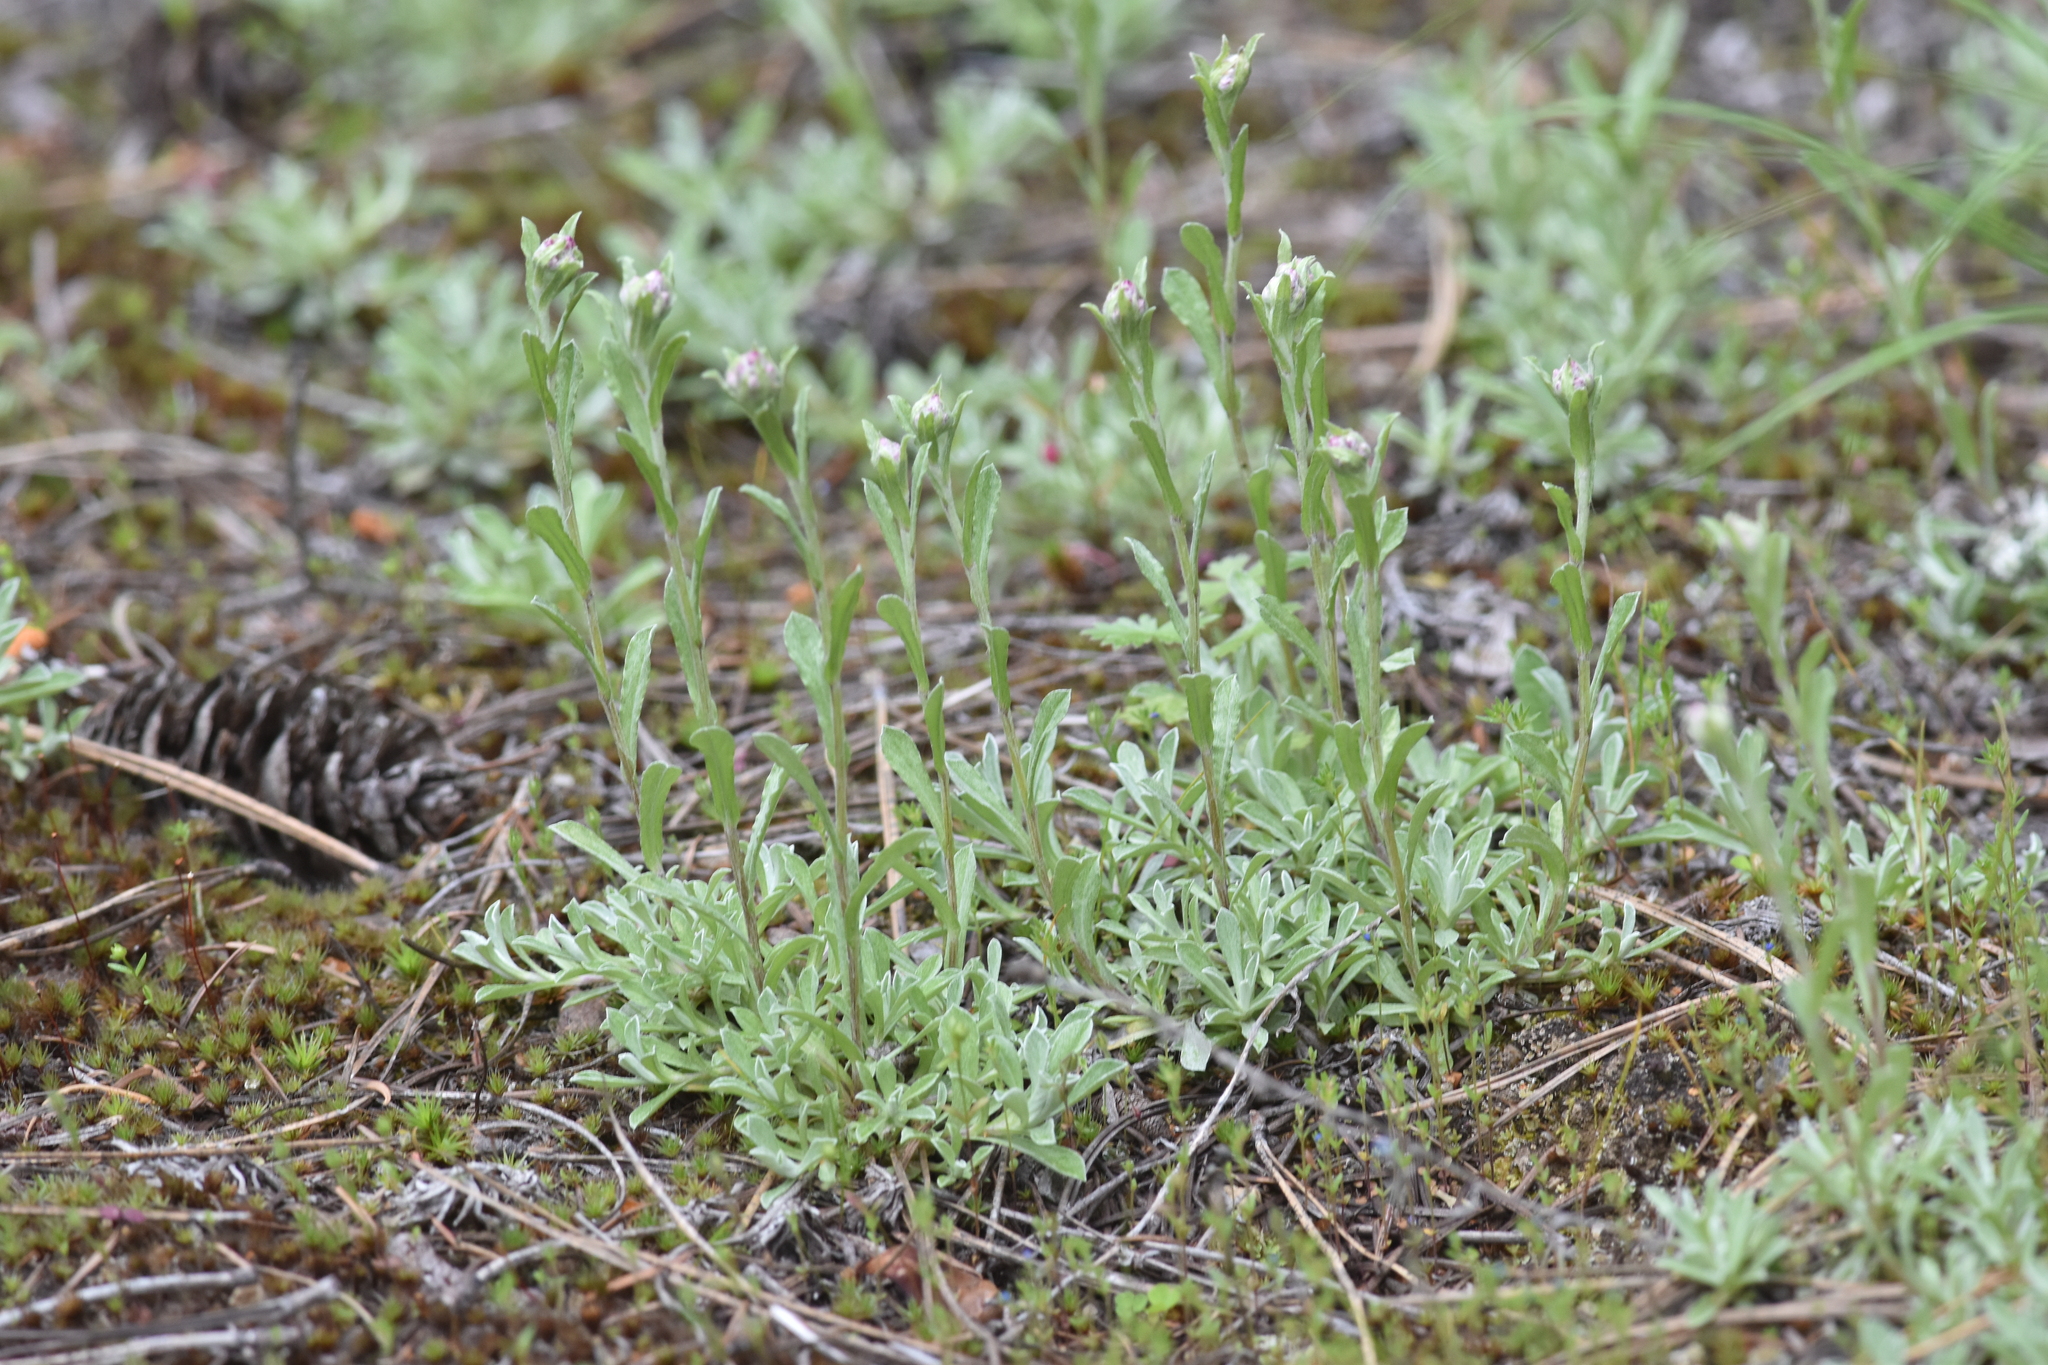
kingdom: Plantae
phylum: Tracheophyta
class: Magnoliopsida
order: Asterales
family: Asteraceae
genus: Antennaria
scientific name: Antennaria rosea
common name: Rosy pussytoes
